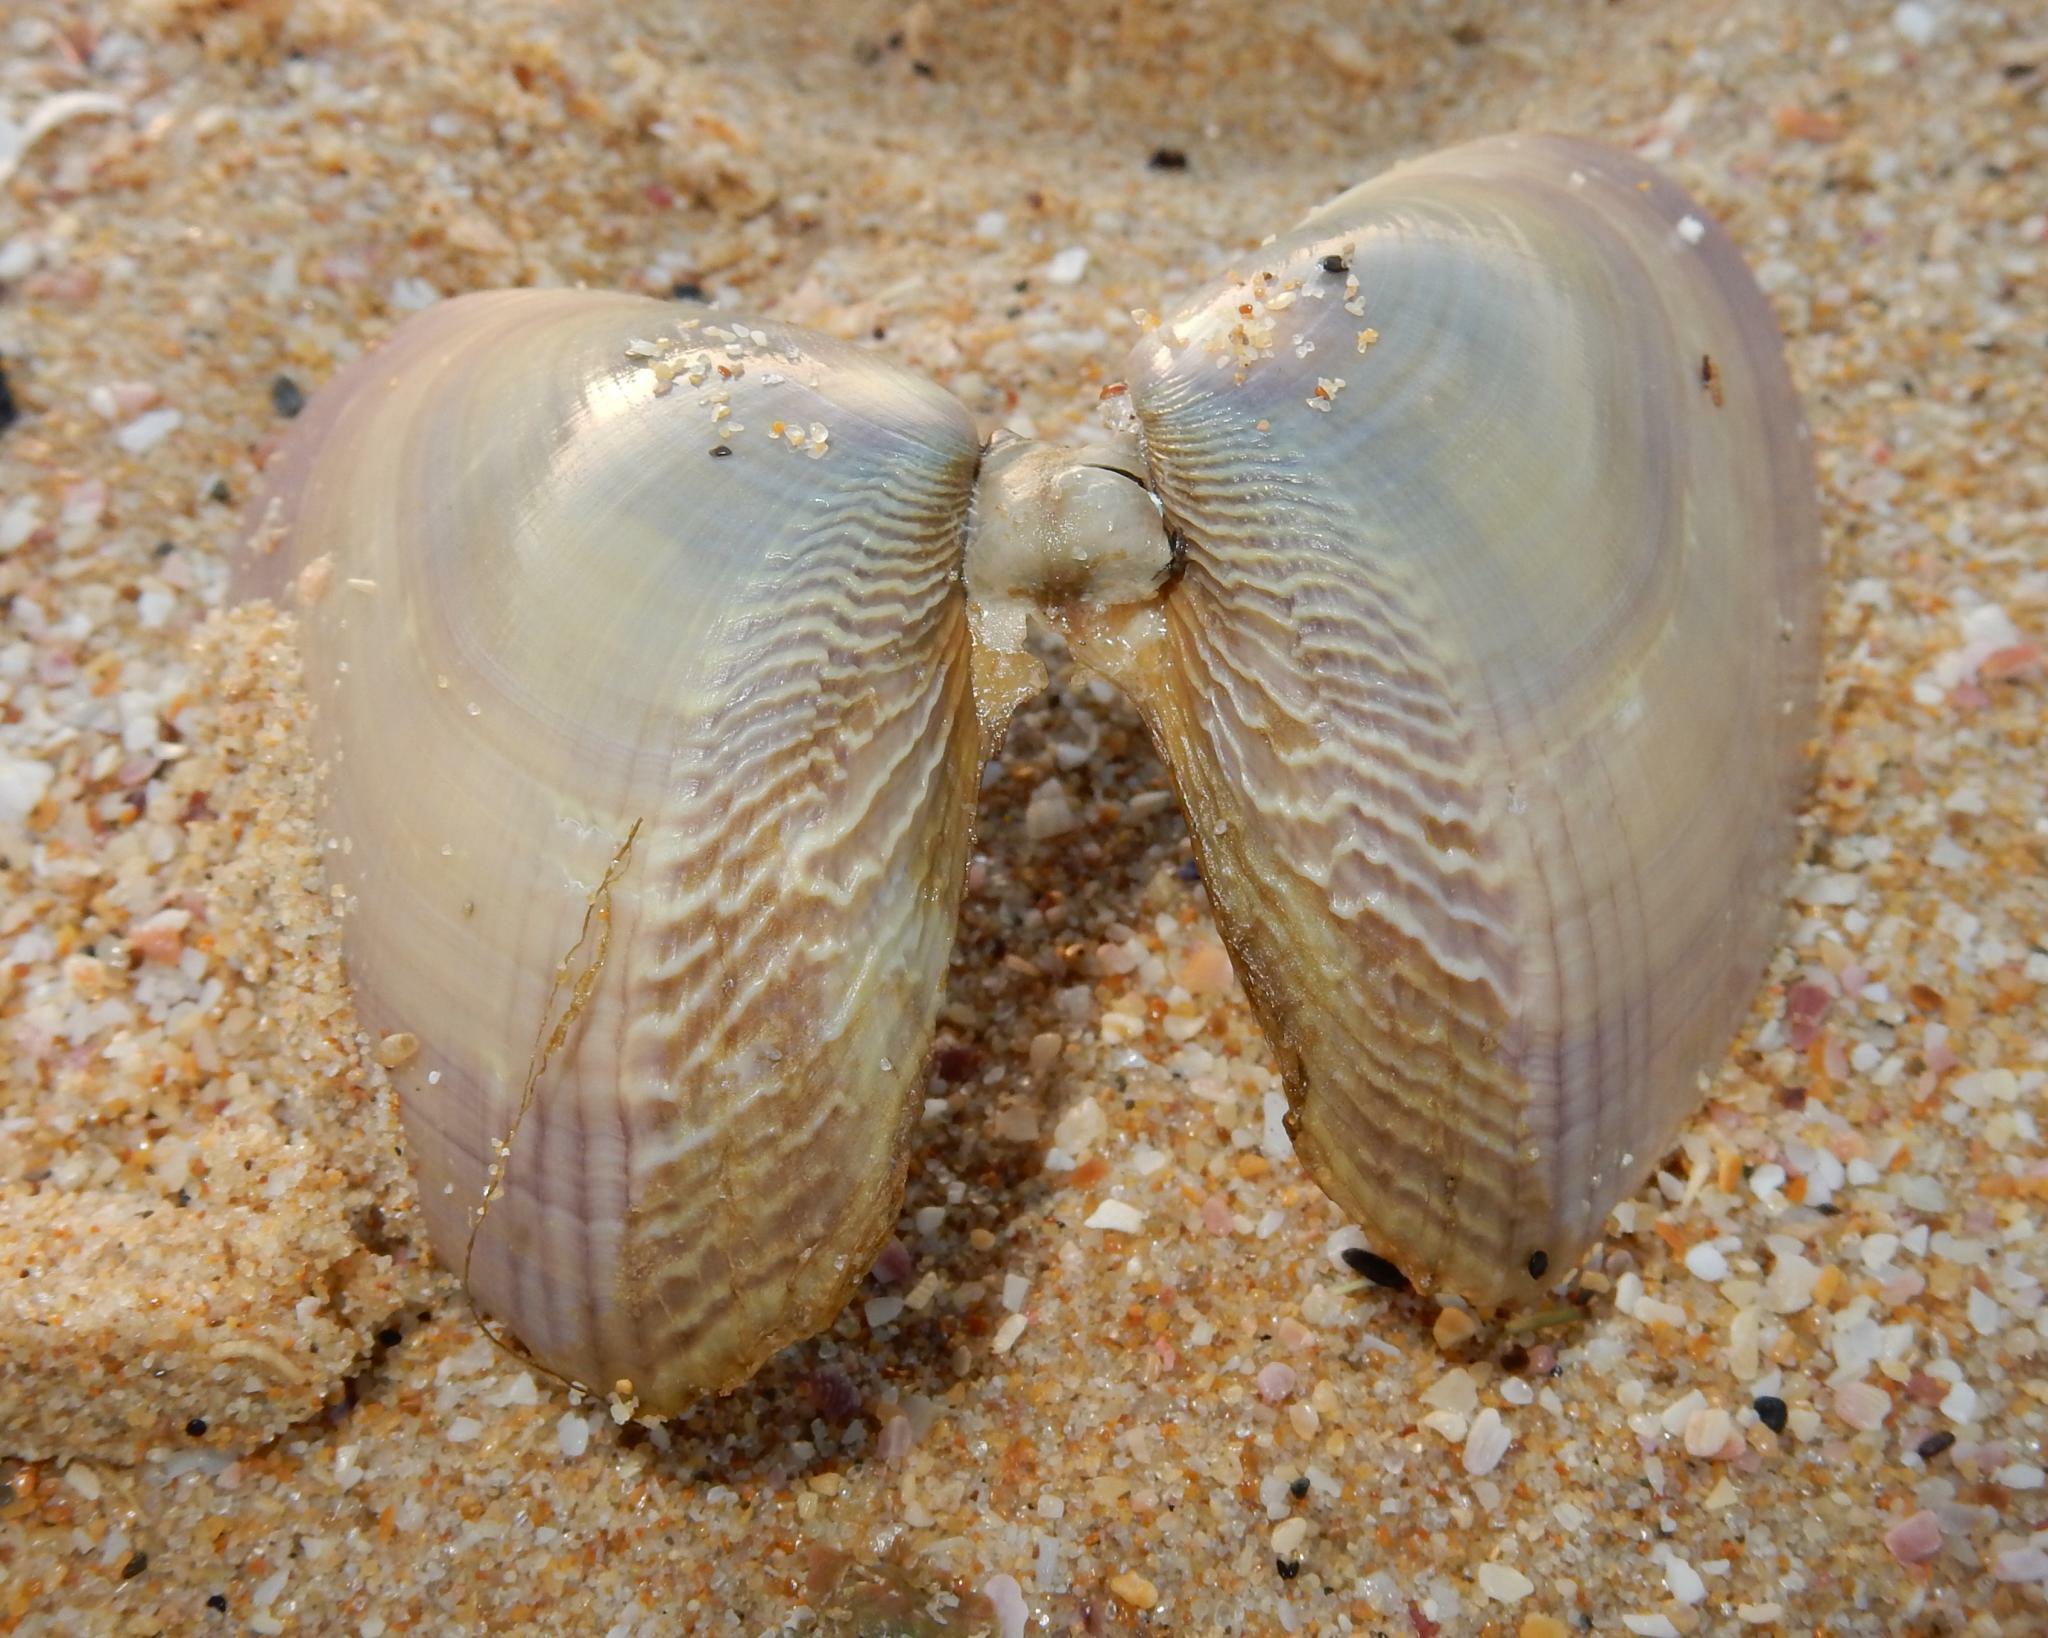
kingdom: Animalia
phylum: Mollusca
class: Bivalvia
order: Cardiida
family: Donacidae
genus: Donax
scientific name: Donax serra
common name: Giant south african wedge clam
